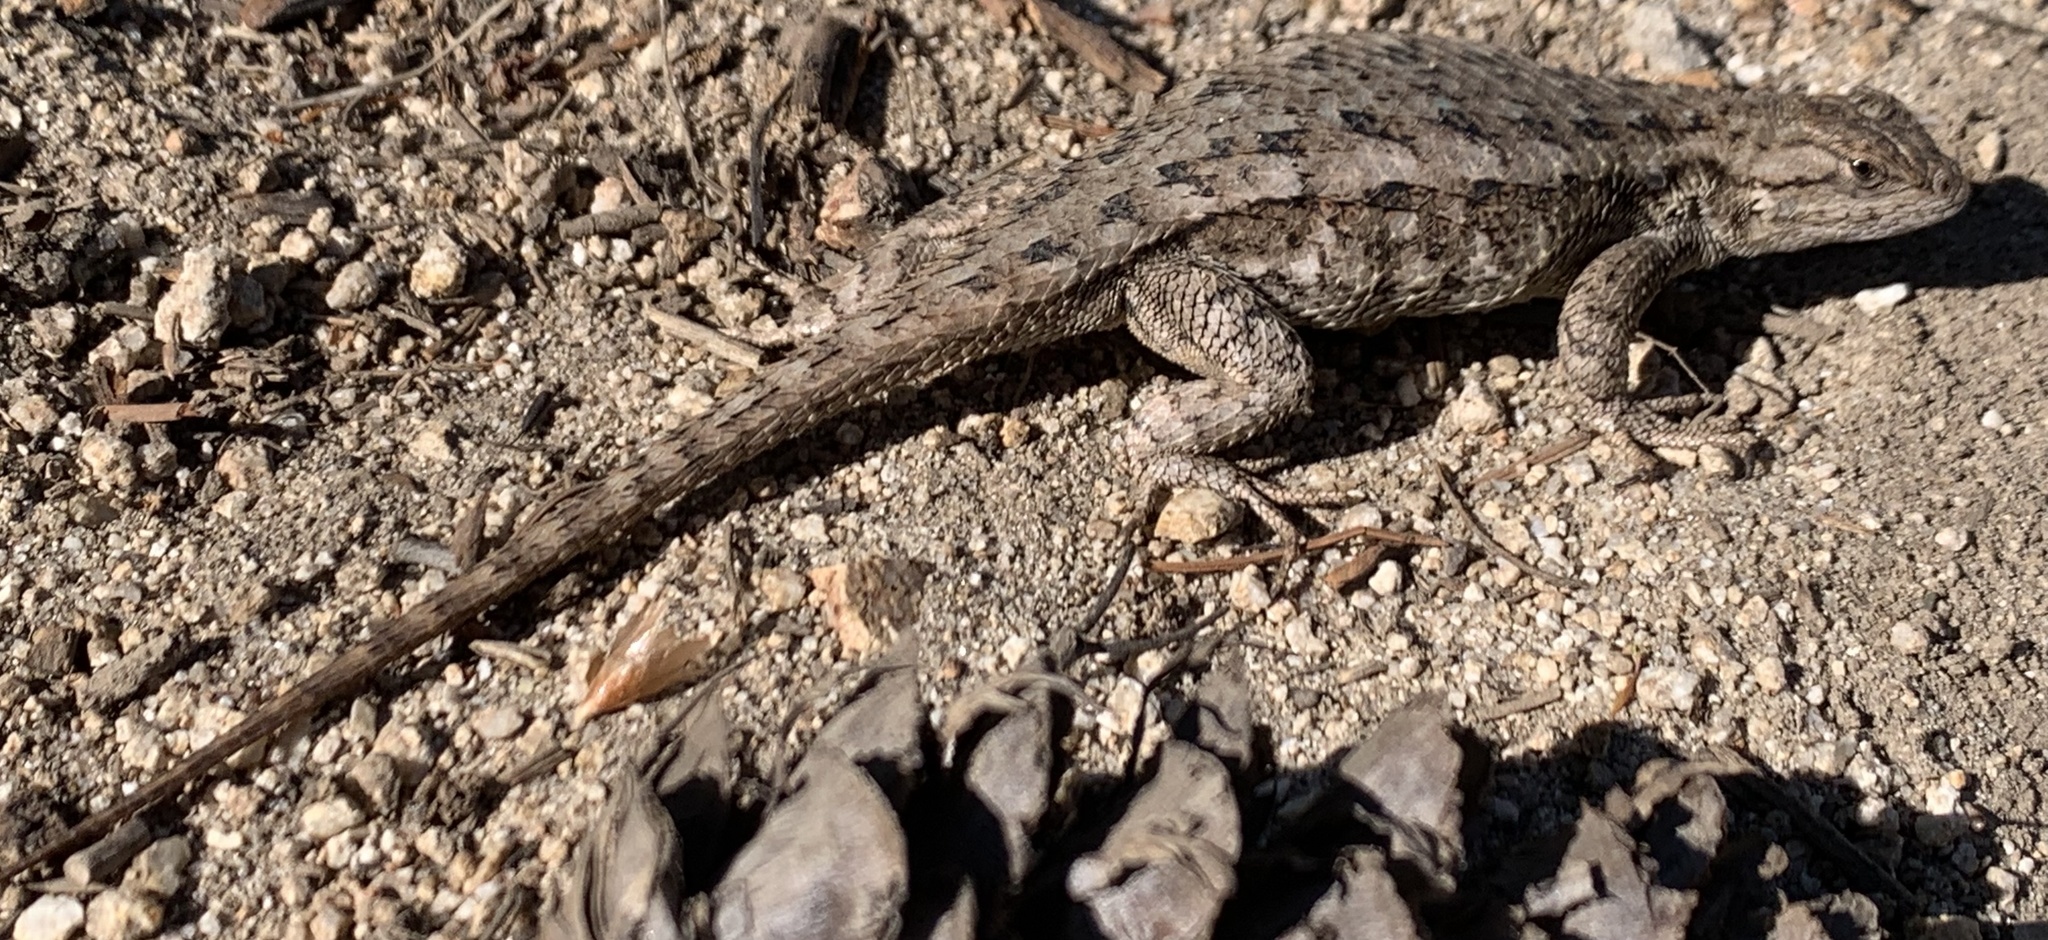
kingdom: Animalia
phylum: Chordata
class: Squamata
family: Phrynosomatidae
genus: Sceloporus
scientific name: Sceloporus occidentalis
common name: Western fence lizard
